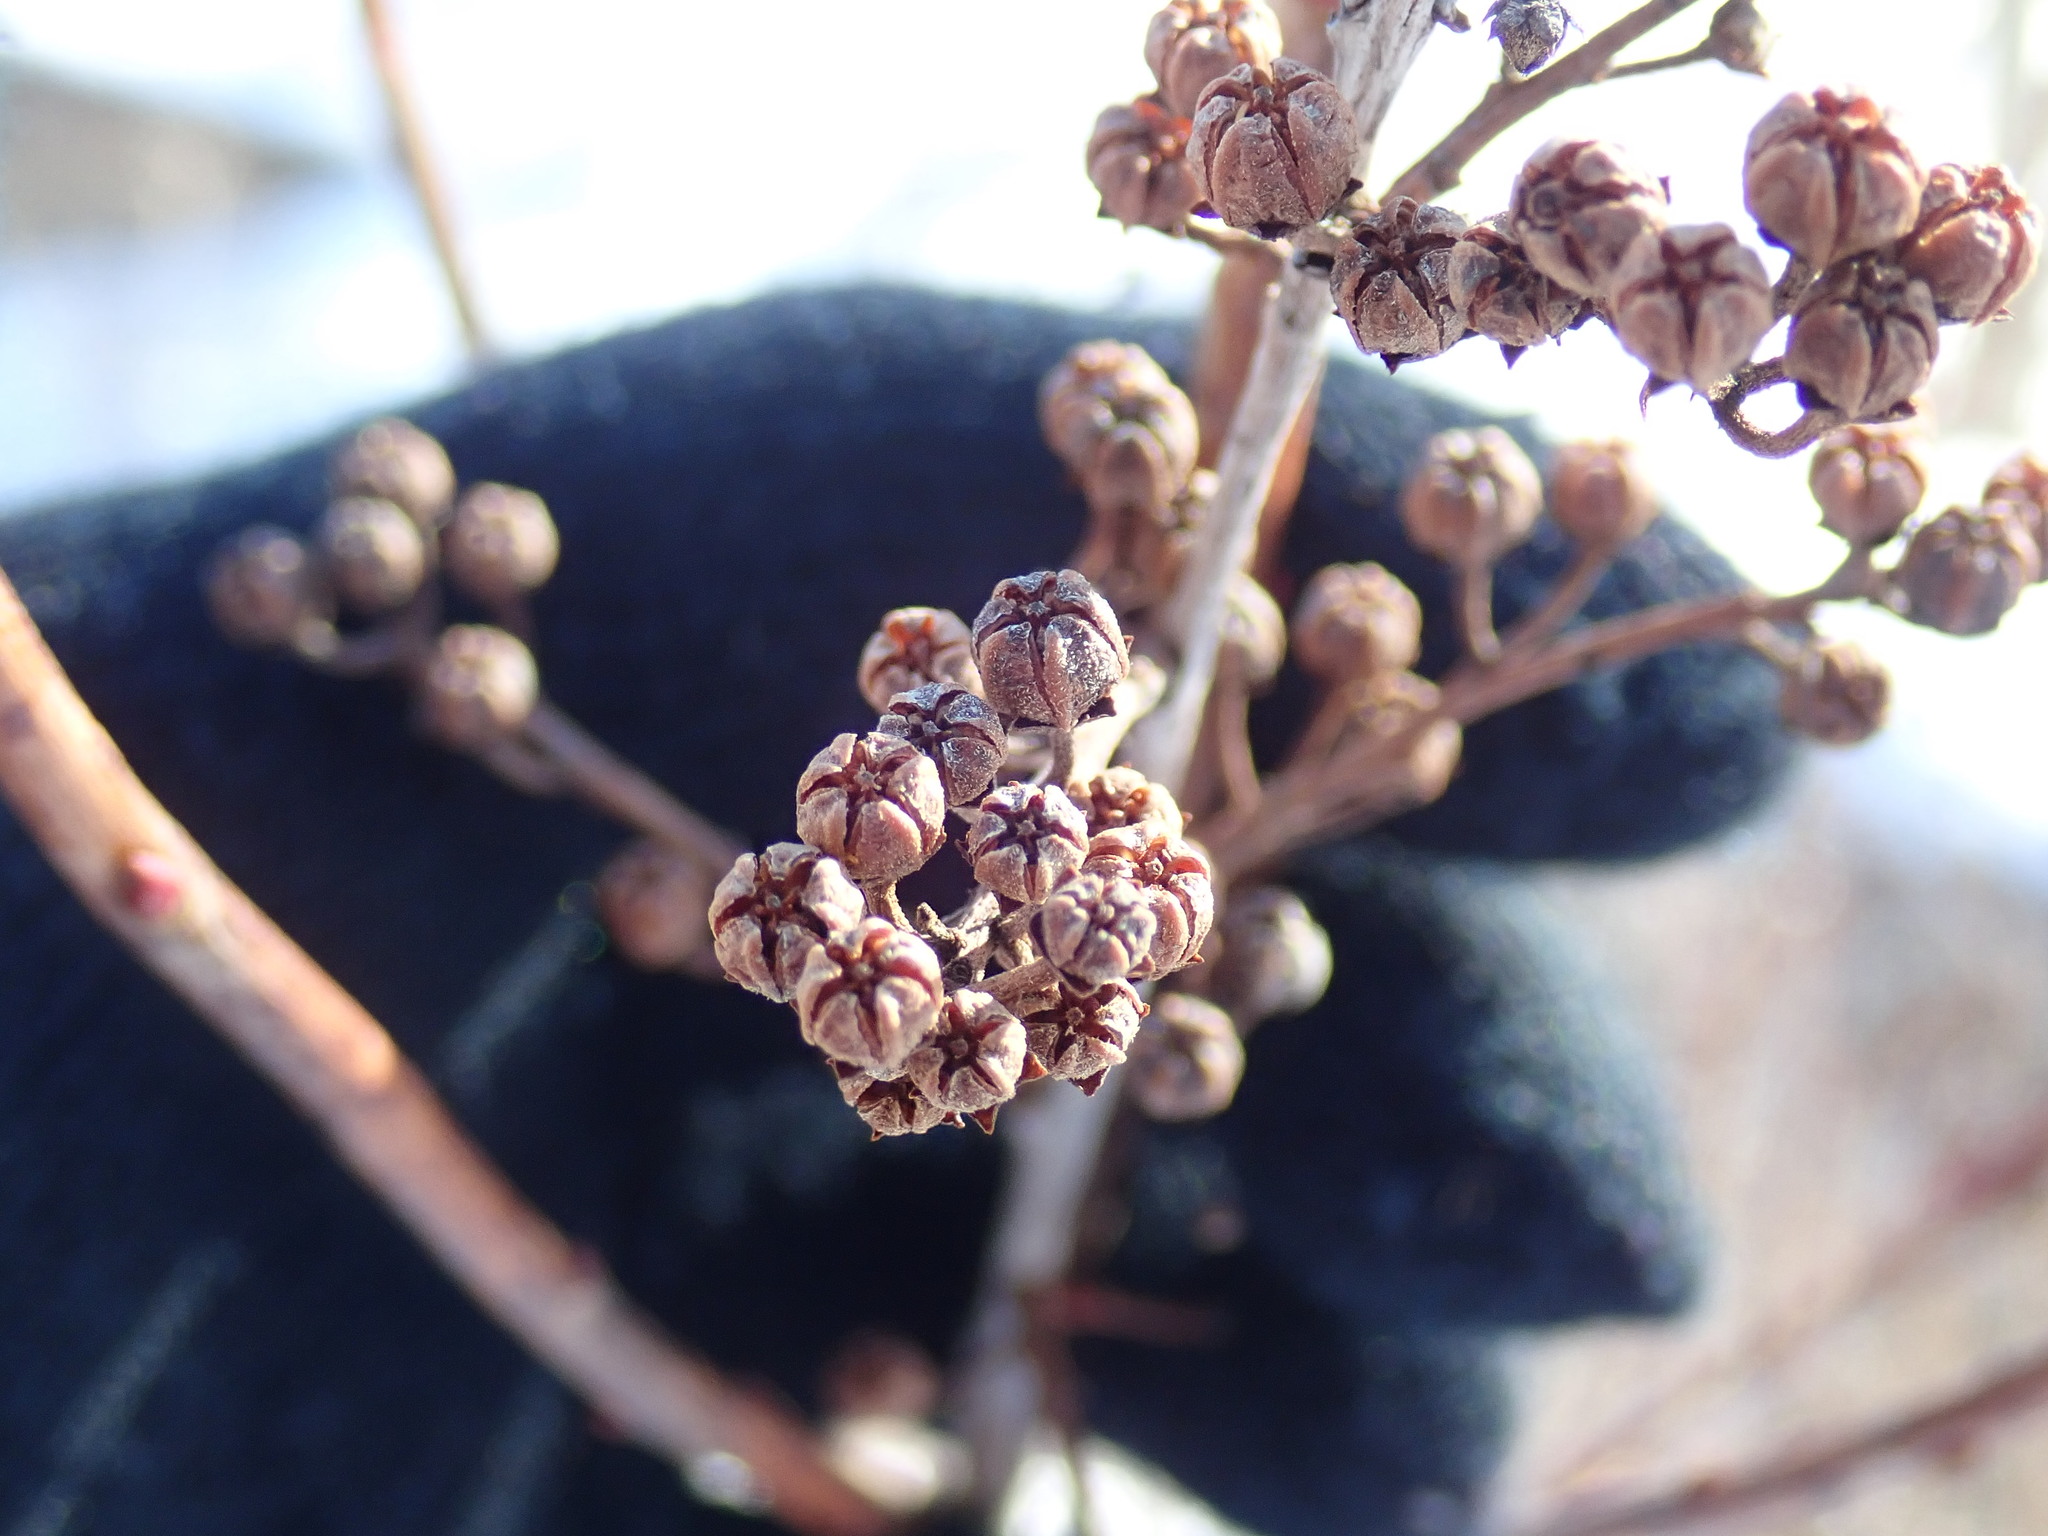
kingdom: Plantae
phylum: Tracheophyta
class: Magnoliopsida
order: Ericales
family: Ericaceae
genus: Lyonia
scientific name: Lyonia ligustrina
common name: Maleberry
